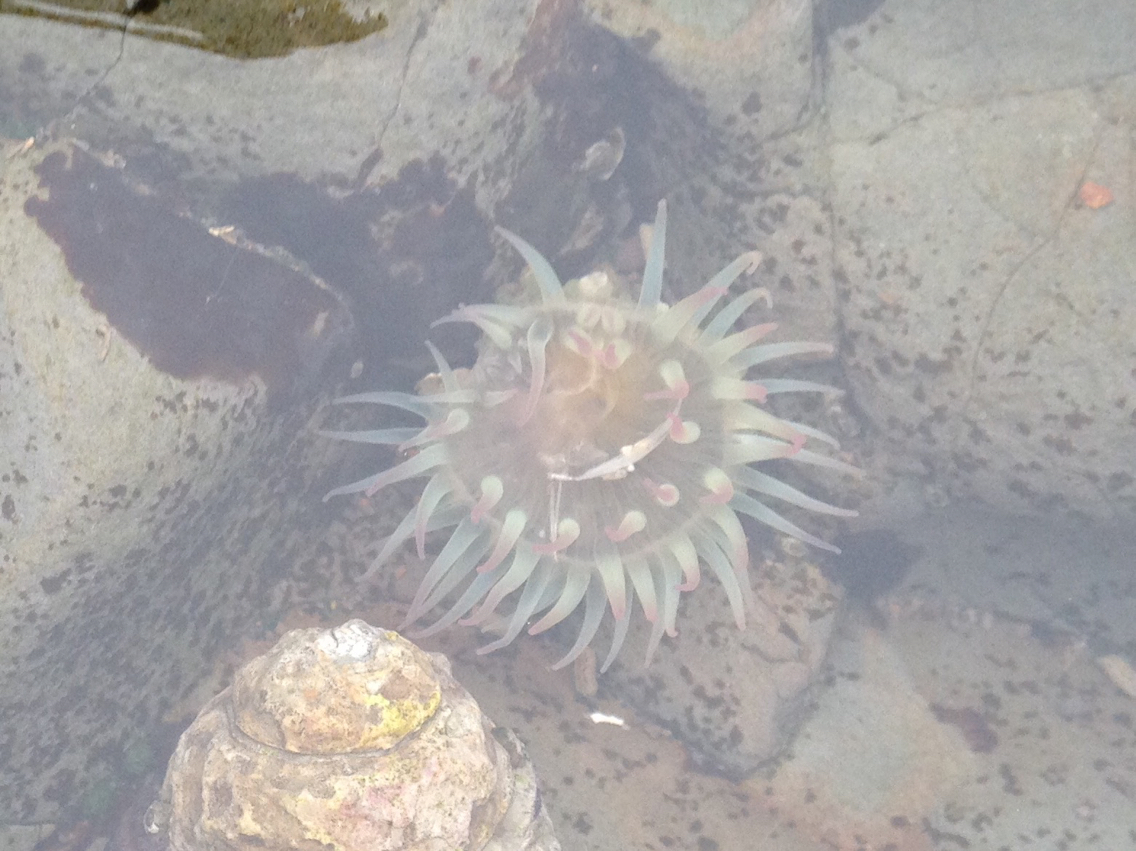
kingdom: Animalia
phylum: Cnidaria
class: Anthozoa
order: Actiniaria
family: Actiniidae
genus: Anthopleura
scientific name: Anthopleura elegantissima
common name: Clonal anemone
